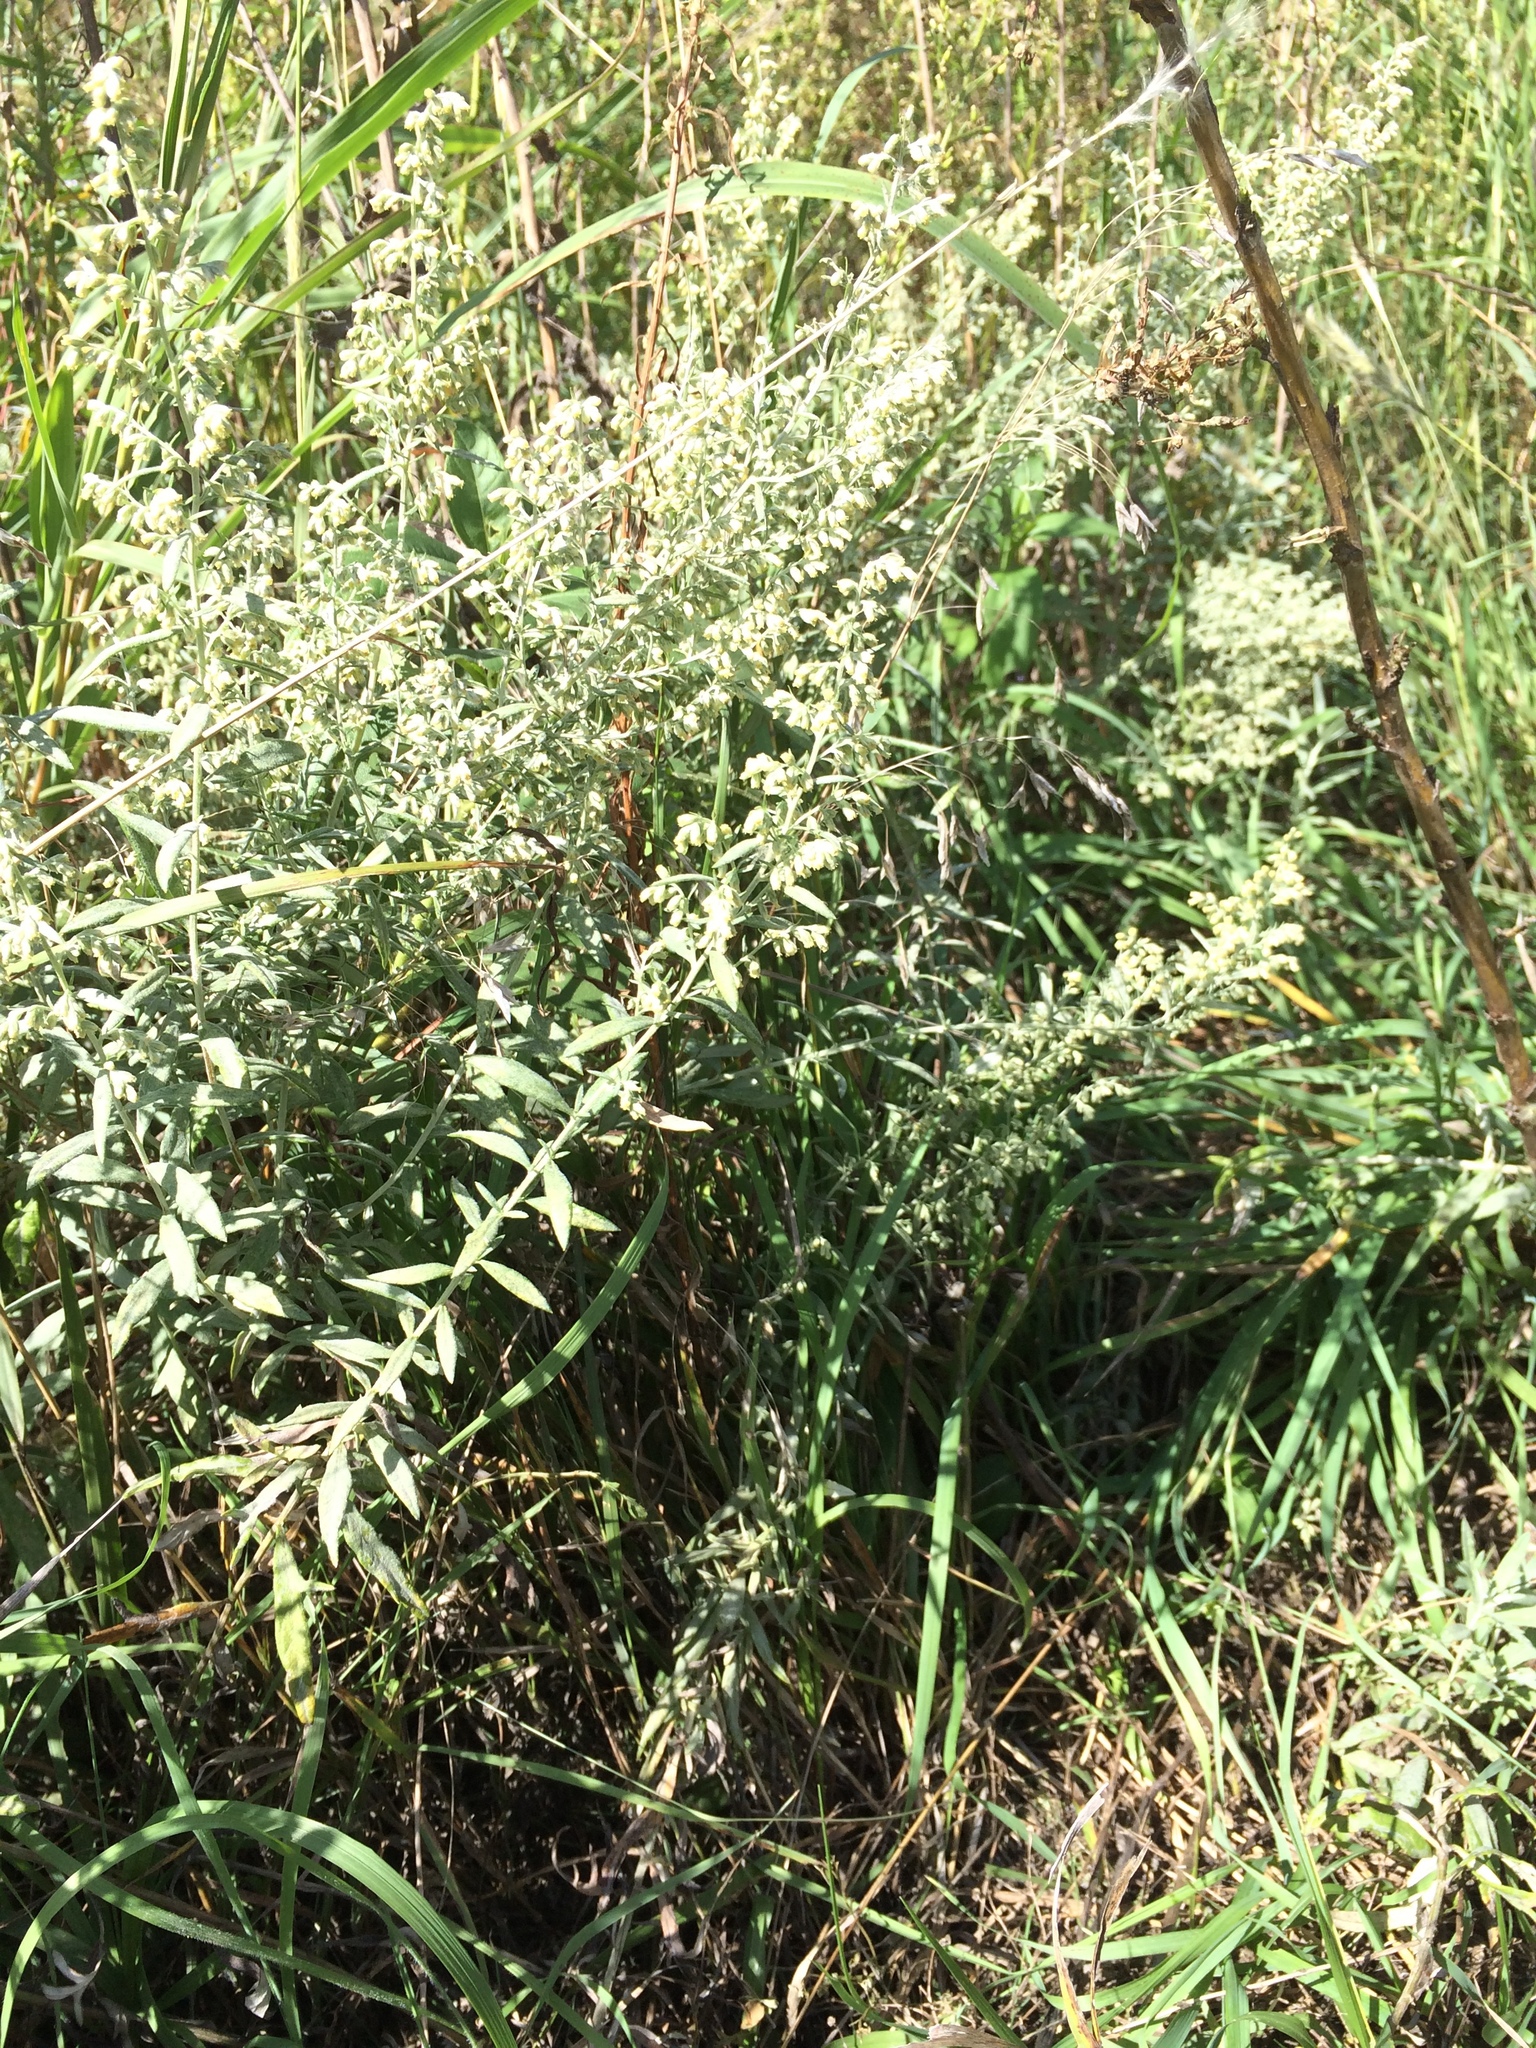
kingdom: Plantae
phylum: Tracheophyta
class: Magnoliopsida
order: Asterales
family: Asteraceae
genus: Artemisia
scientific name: Artemisia ludoviciana
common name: Western mugwort
